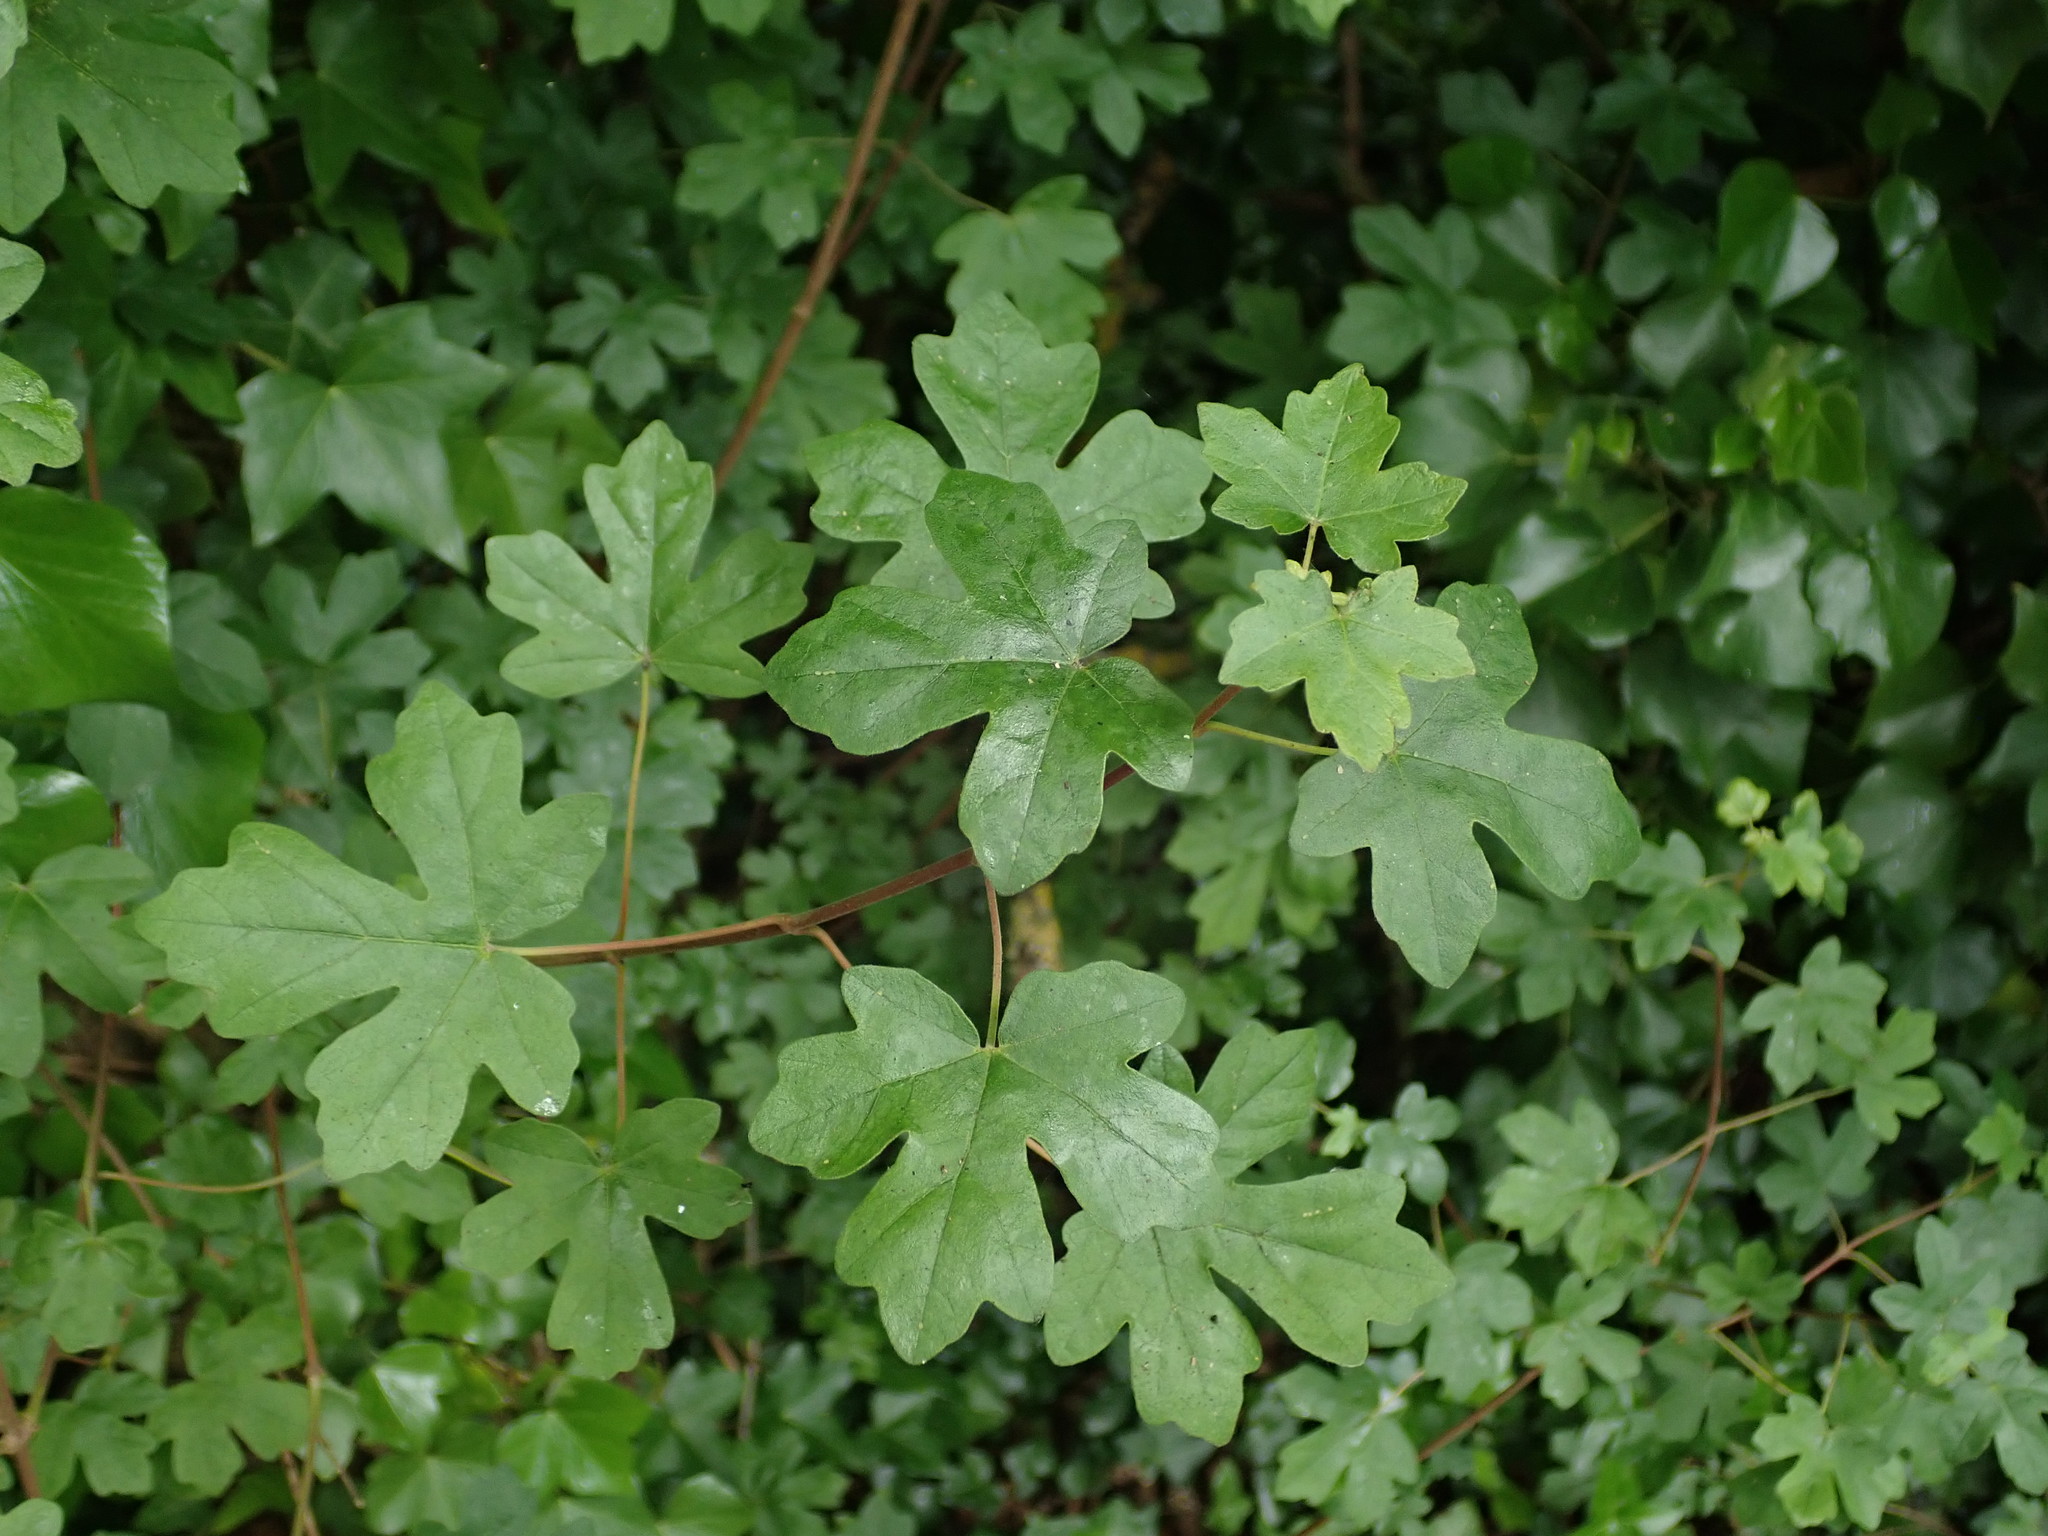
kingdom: Plantae
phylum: Tracheophyta
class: Magnoliopsida
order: Sapindales
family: Sapindaceae
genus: Acer
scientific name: Acer campestre
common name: Field maple
